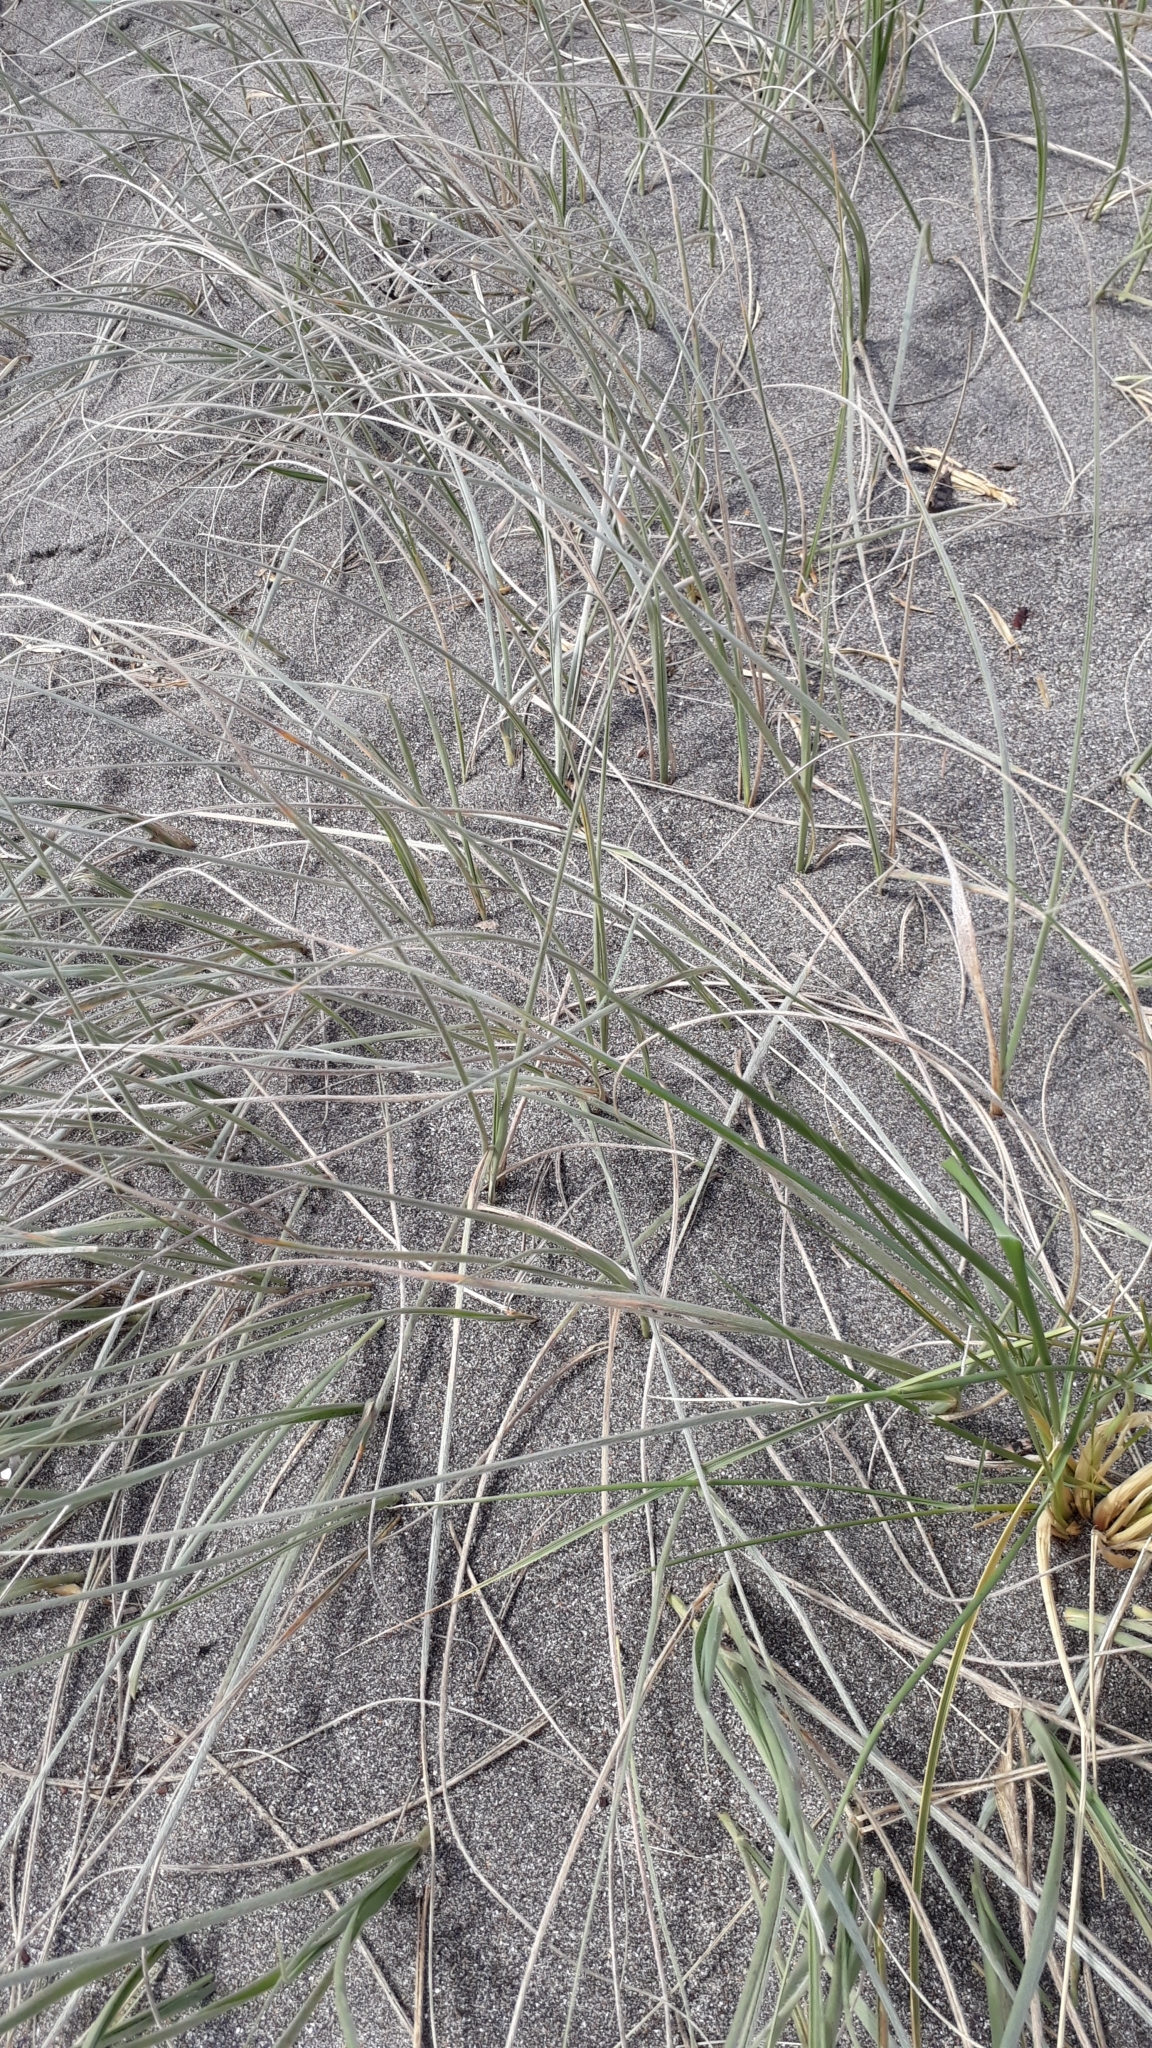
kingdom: Plantae
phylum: Tracheophyta
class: Liliopsida
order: Poales
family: Poaceae
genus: Spinifex
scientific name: Spinifex sericeus
